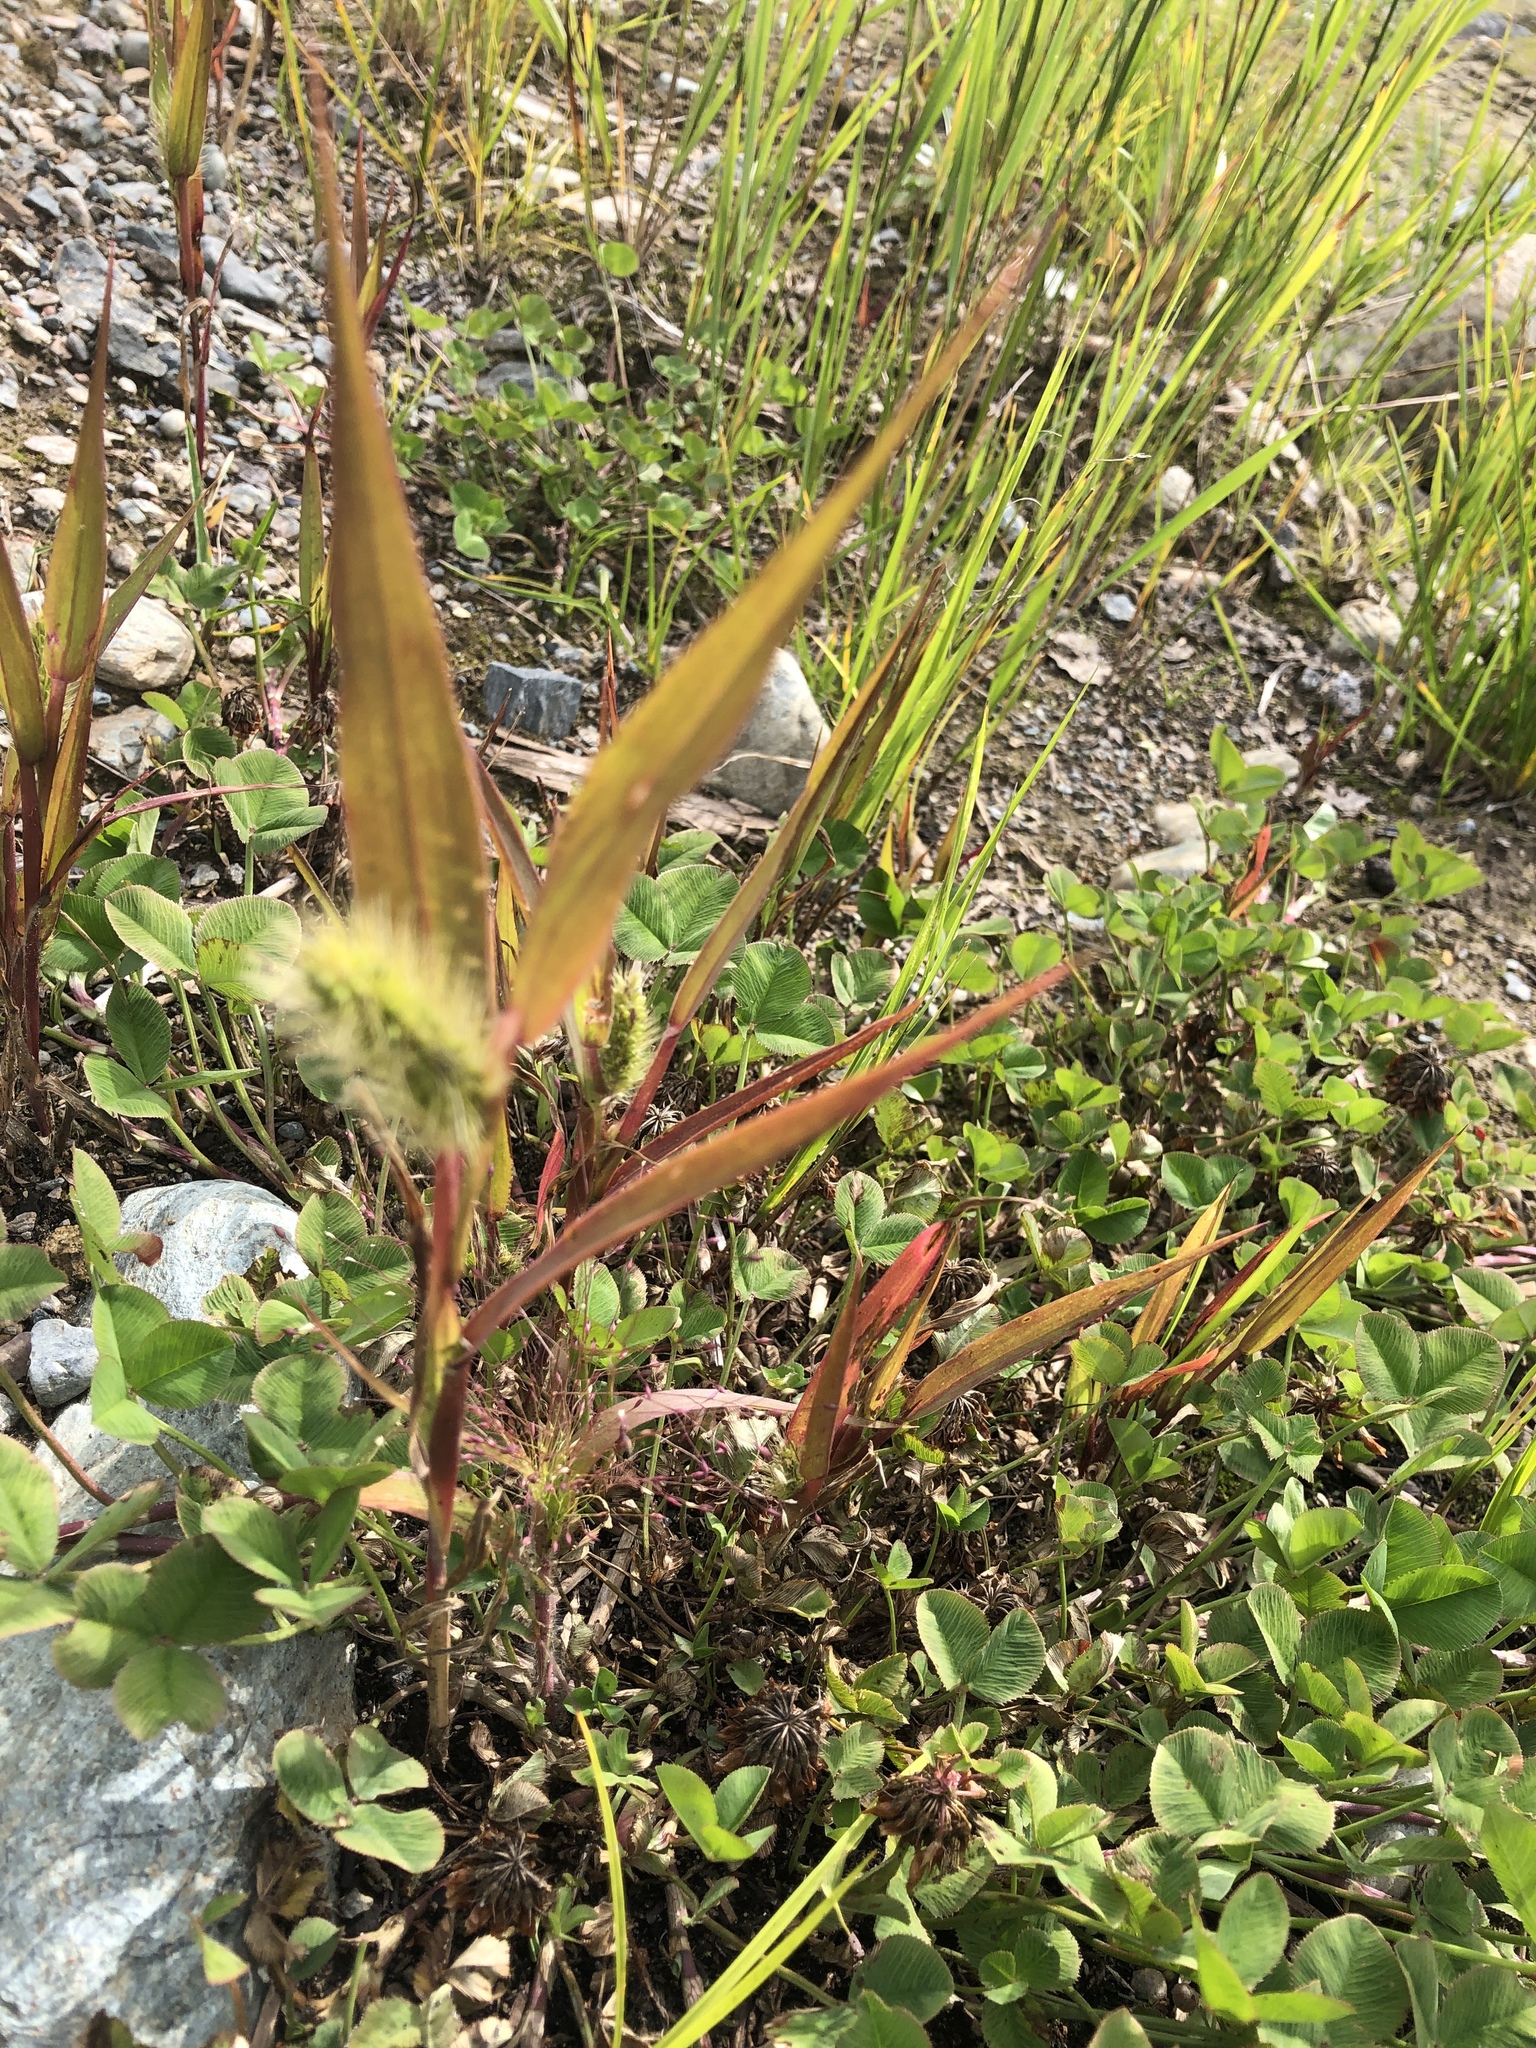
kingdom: Plantae
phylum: Tracheophyta
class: Liliopsida
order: Poales
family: Poaceae
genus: Setaria
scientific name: Setaria viridis
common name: Green bristlegrass
